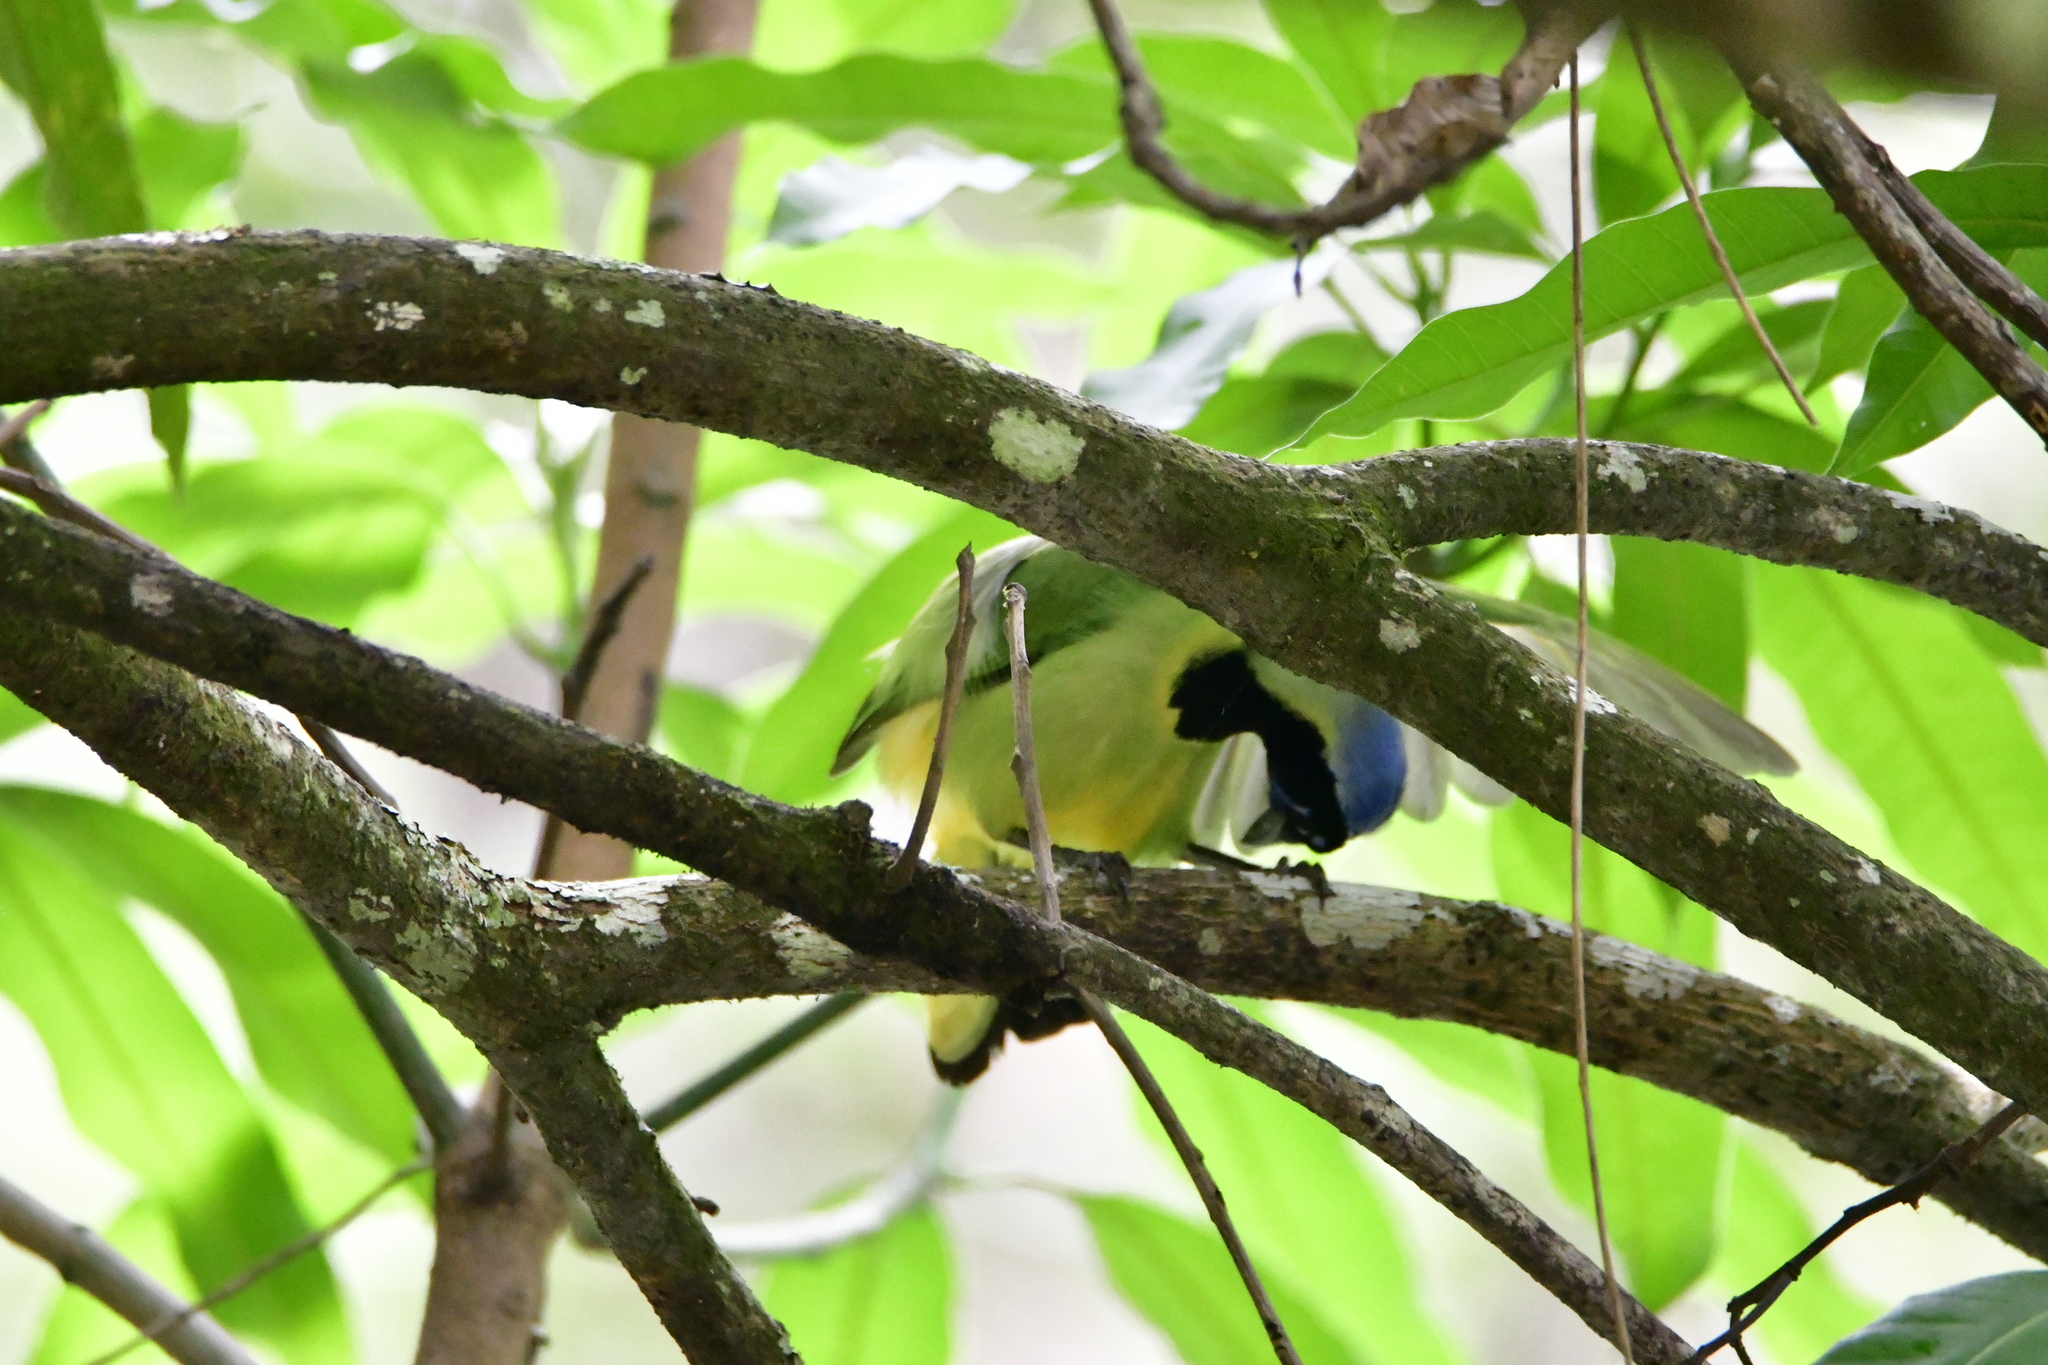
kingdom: Animalia
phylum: Chordata
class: Aves
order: Passeriformes
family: Corvidae
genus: Cyanocorax
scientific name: Cyanocorax yncas
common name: Green jay
